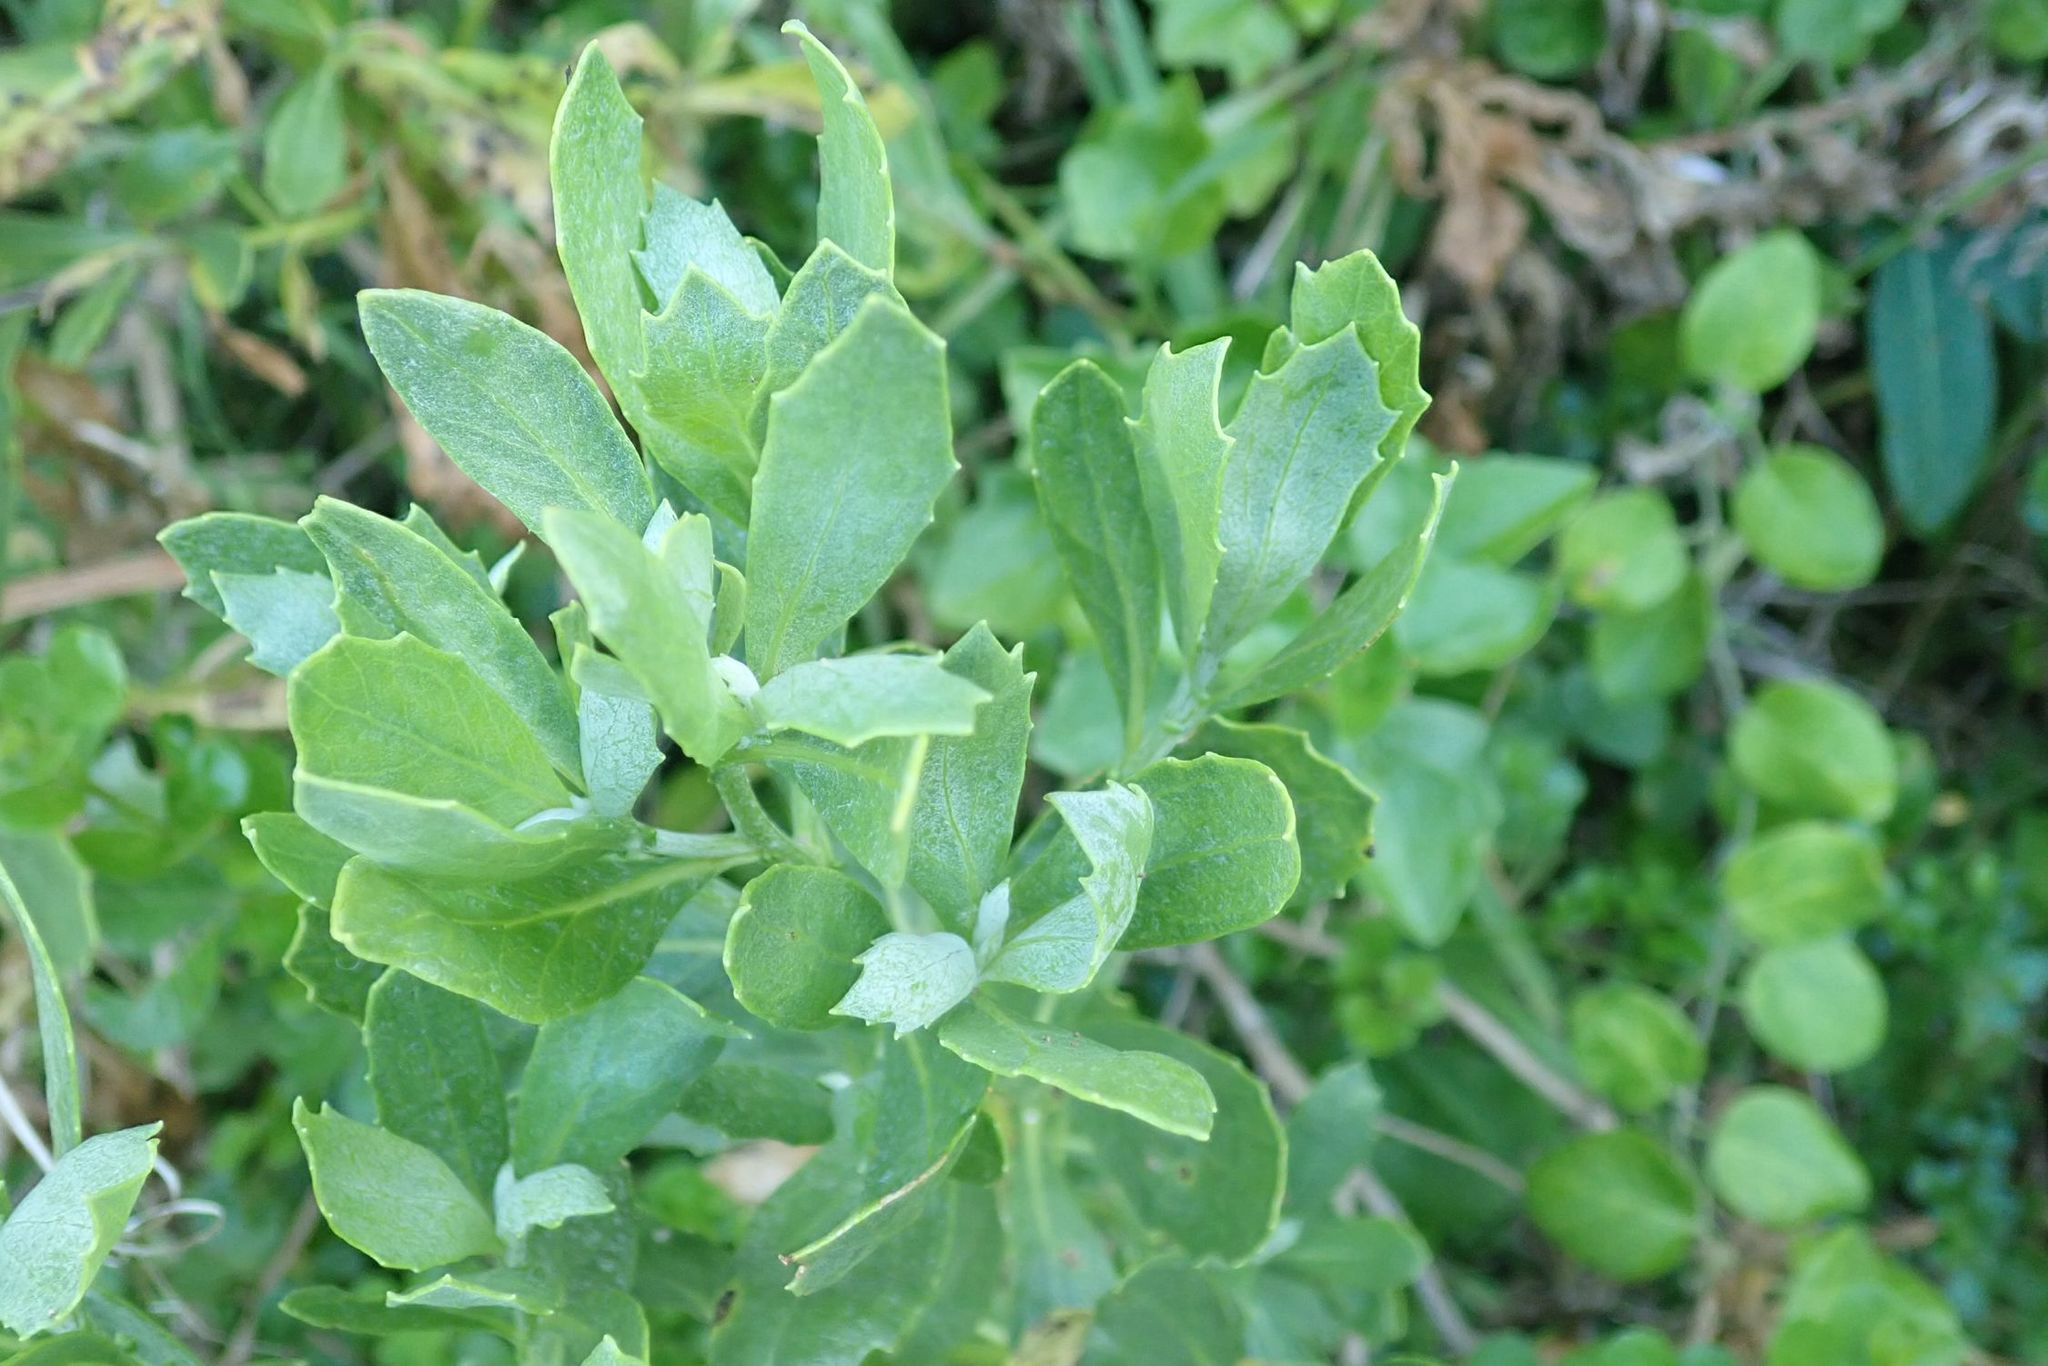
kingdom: Plantae
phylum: Tracheophyta
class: Magnoliopsida
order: Asterales
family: Asteraceae
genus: Senecio
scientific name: Senecio halimifolius
